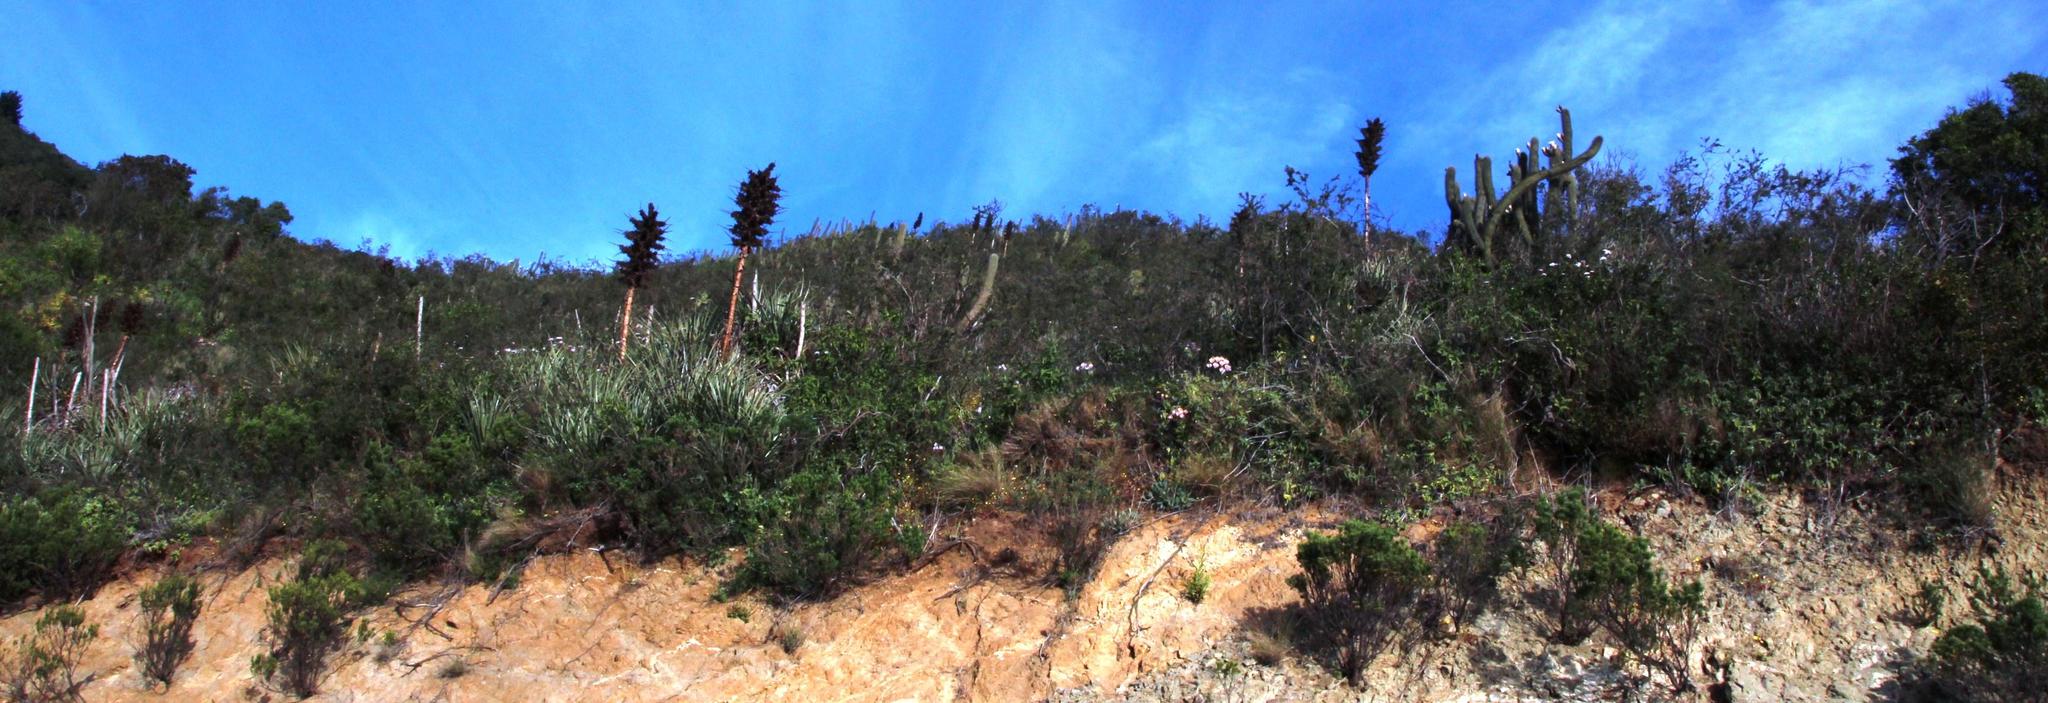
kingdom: Plantae
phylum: Tracheophyta
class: Liliopsida
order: Poales
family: Bromeliaceae
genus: Puya
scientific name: Puya chilensis
